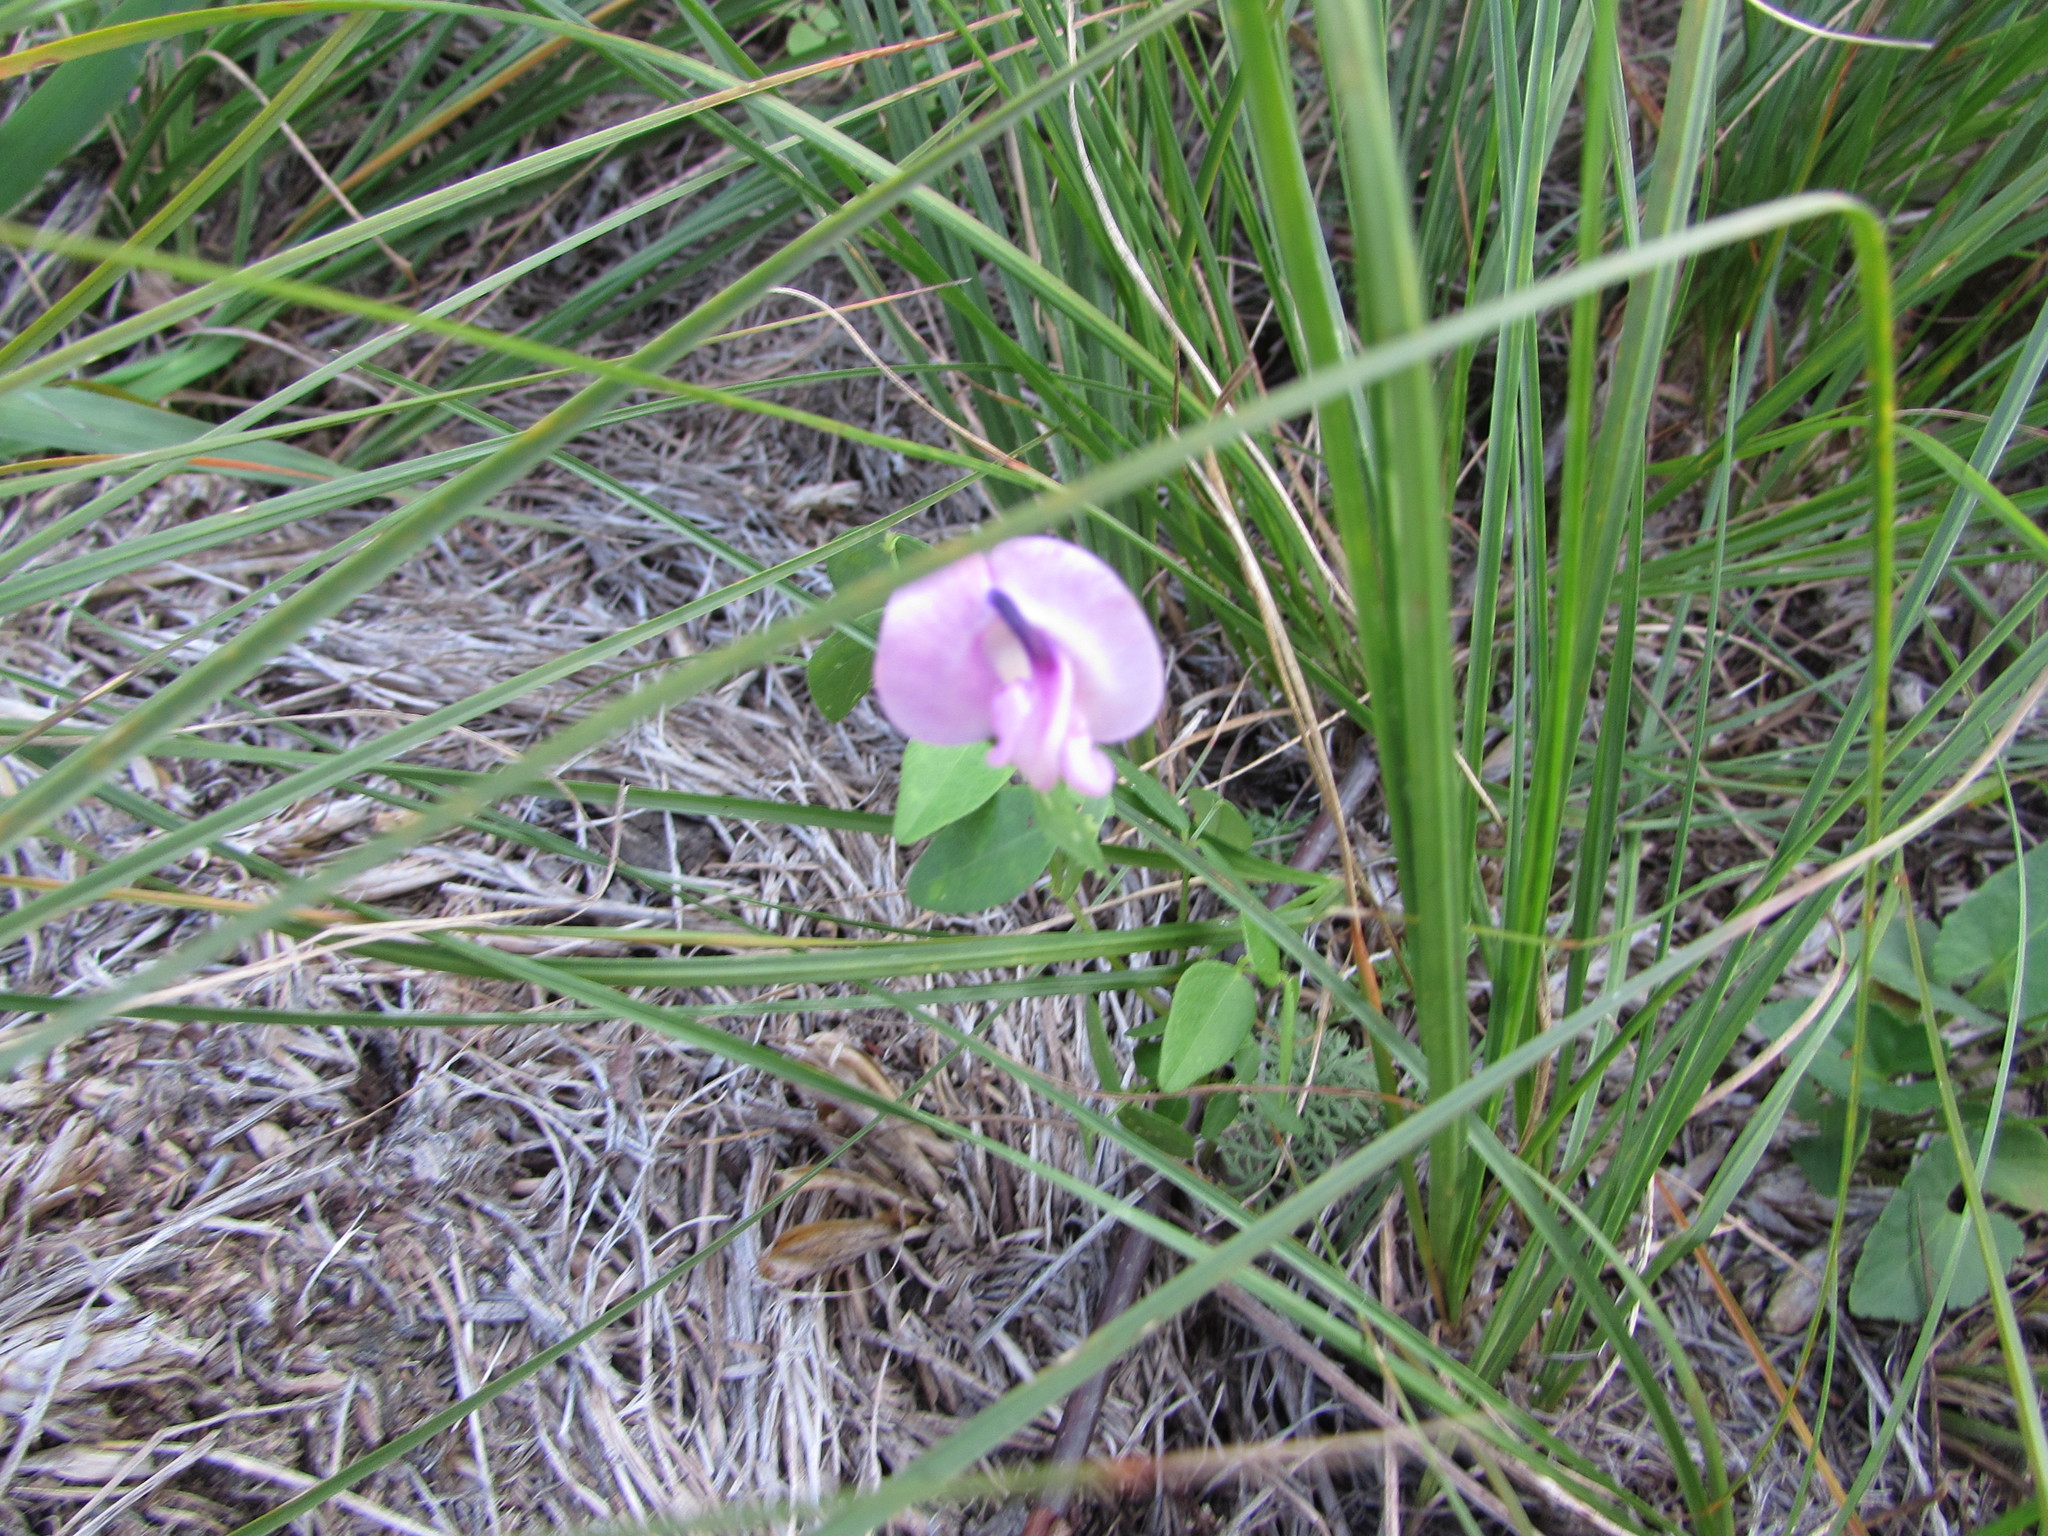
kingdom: Plantae
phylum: Tracheophyta
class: Magnoliopsida
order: Fabales
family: Fabaceae
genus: Strophostyles
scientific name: Strophostyles umbellata
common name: Perennial wild bean
